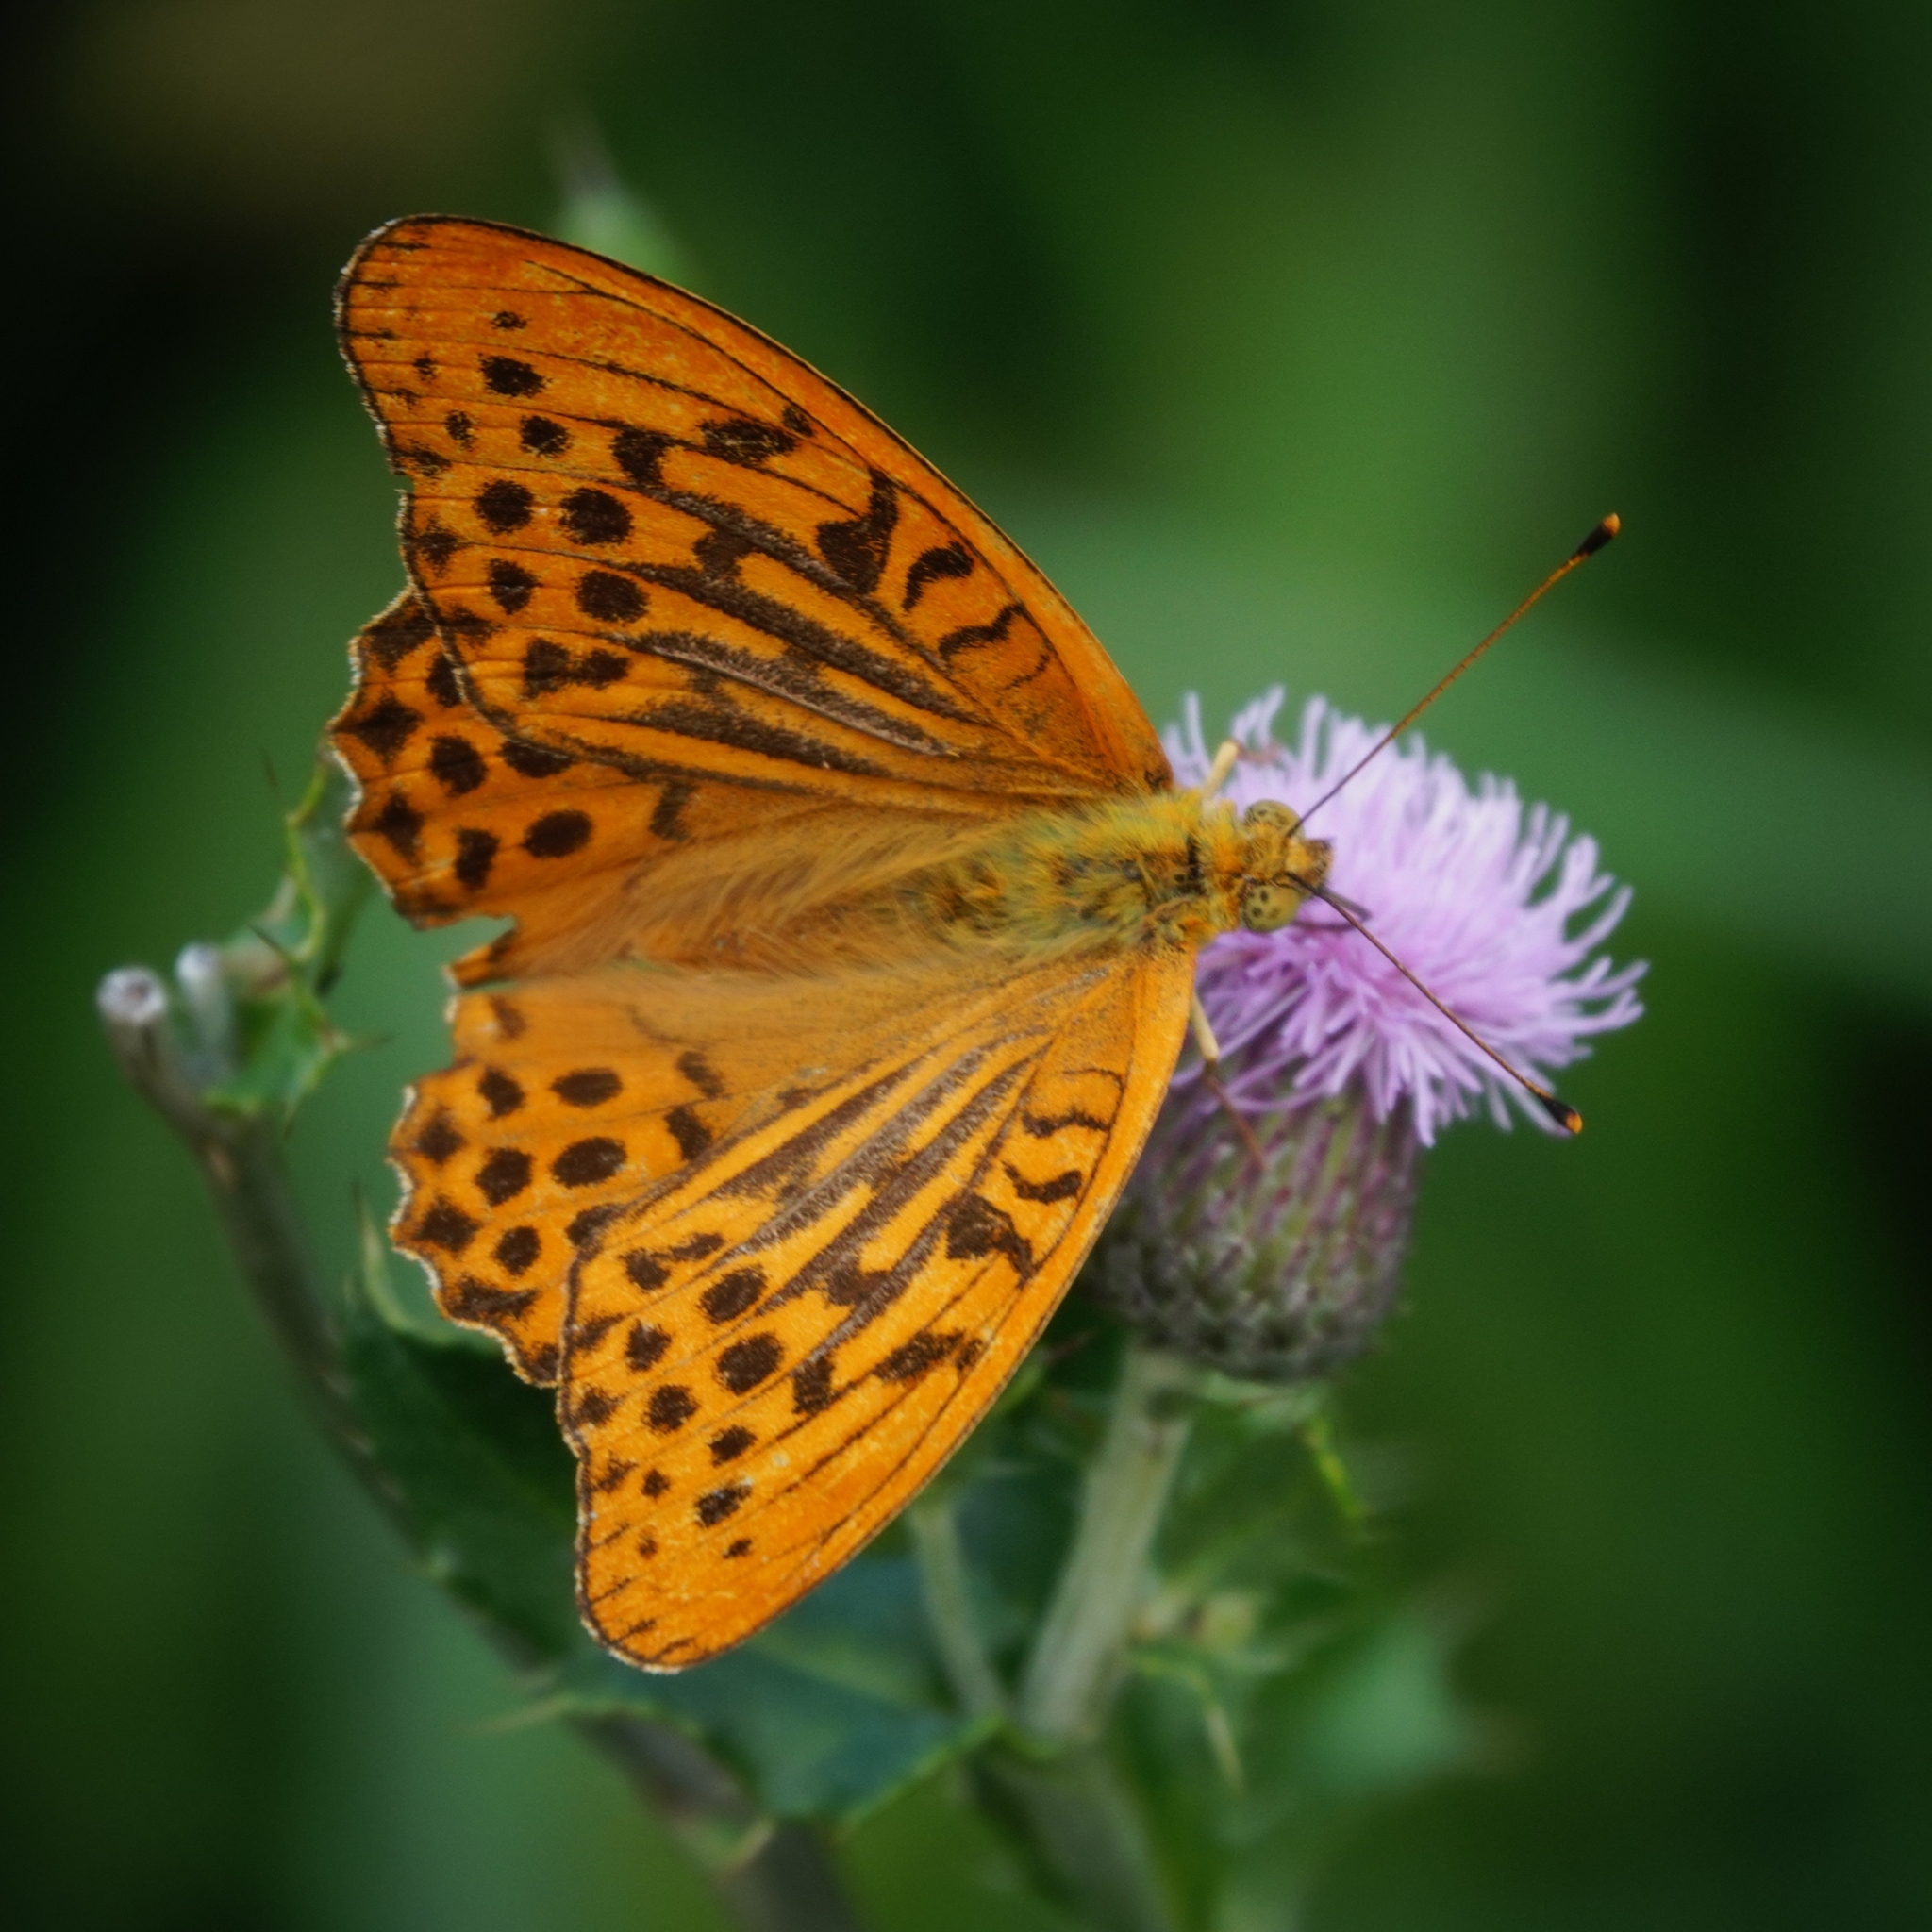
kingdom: Animalia
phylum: Arthropoda
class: Insecta
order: Lepidoptera
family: Nymphalidae
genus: Argynnis
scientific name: Argynnis paphia
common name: Silver-washed fritillary
